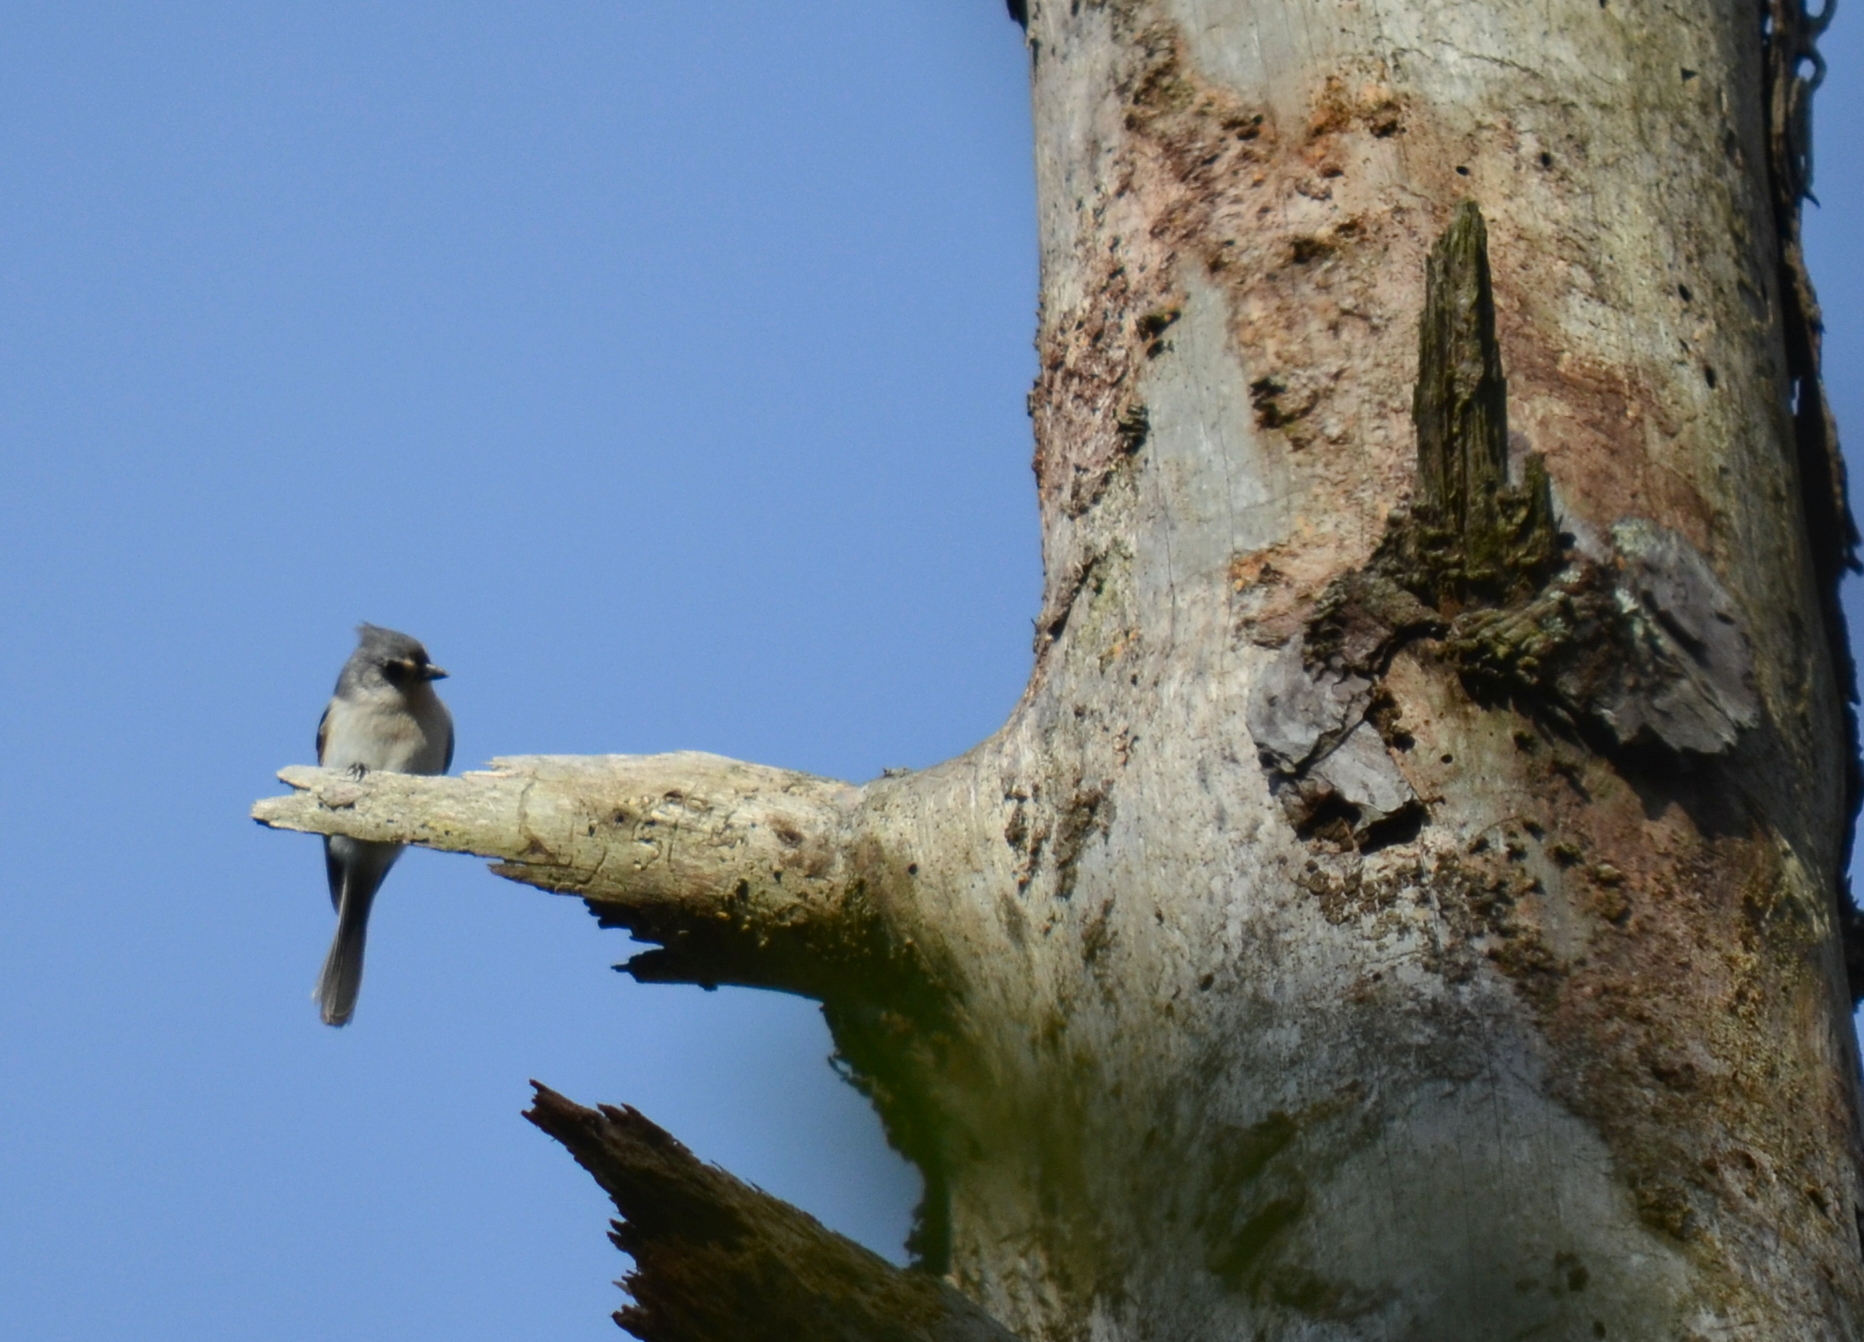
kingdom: Animalia
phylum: Chordata
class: Aves
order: Passeriformes
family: Paridae
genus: Baeolophus
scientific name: Baeolophus bicolor
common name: Tufted titmouse
